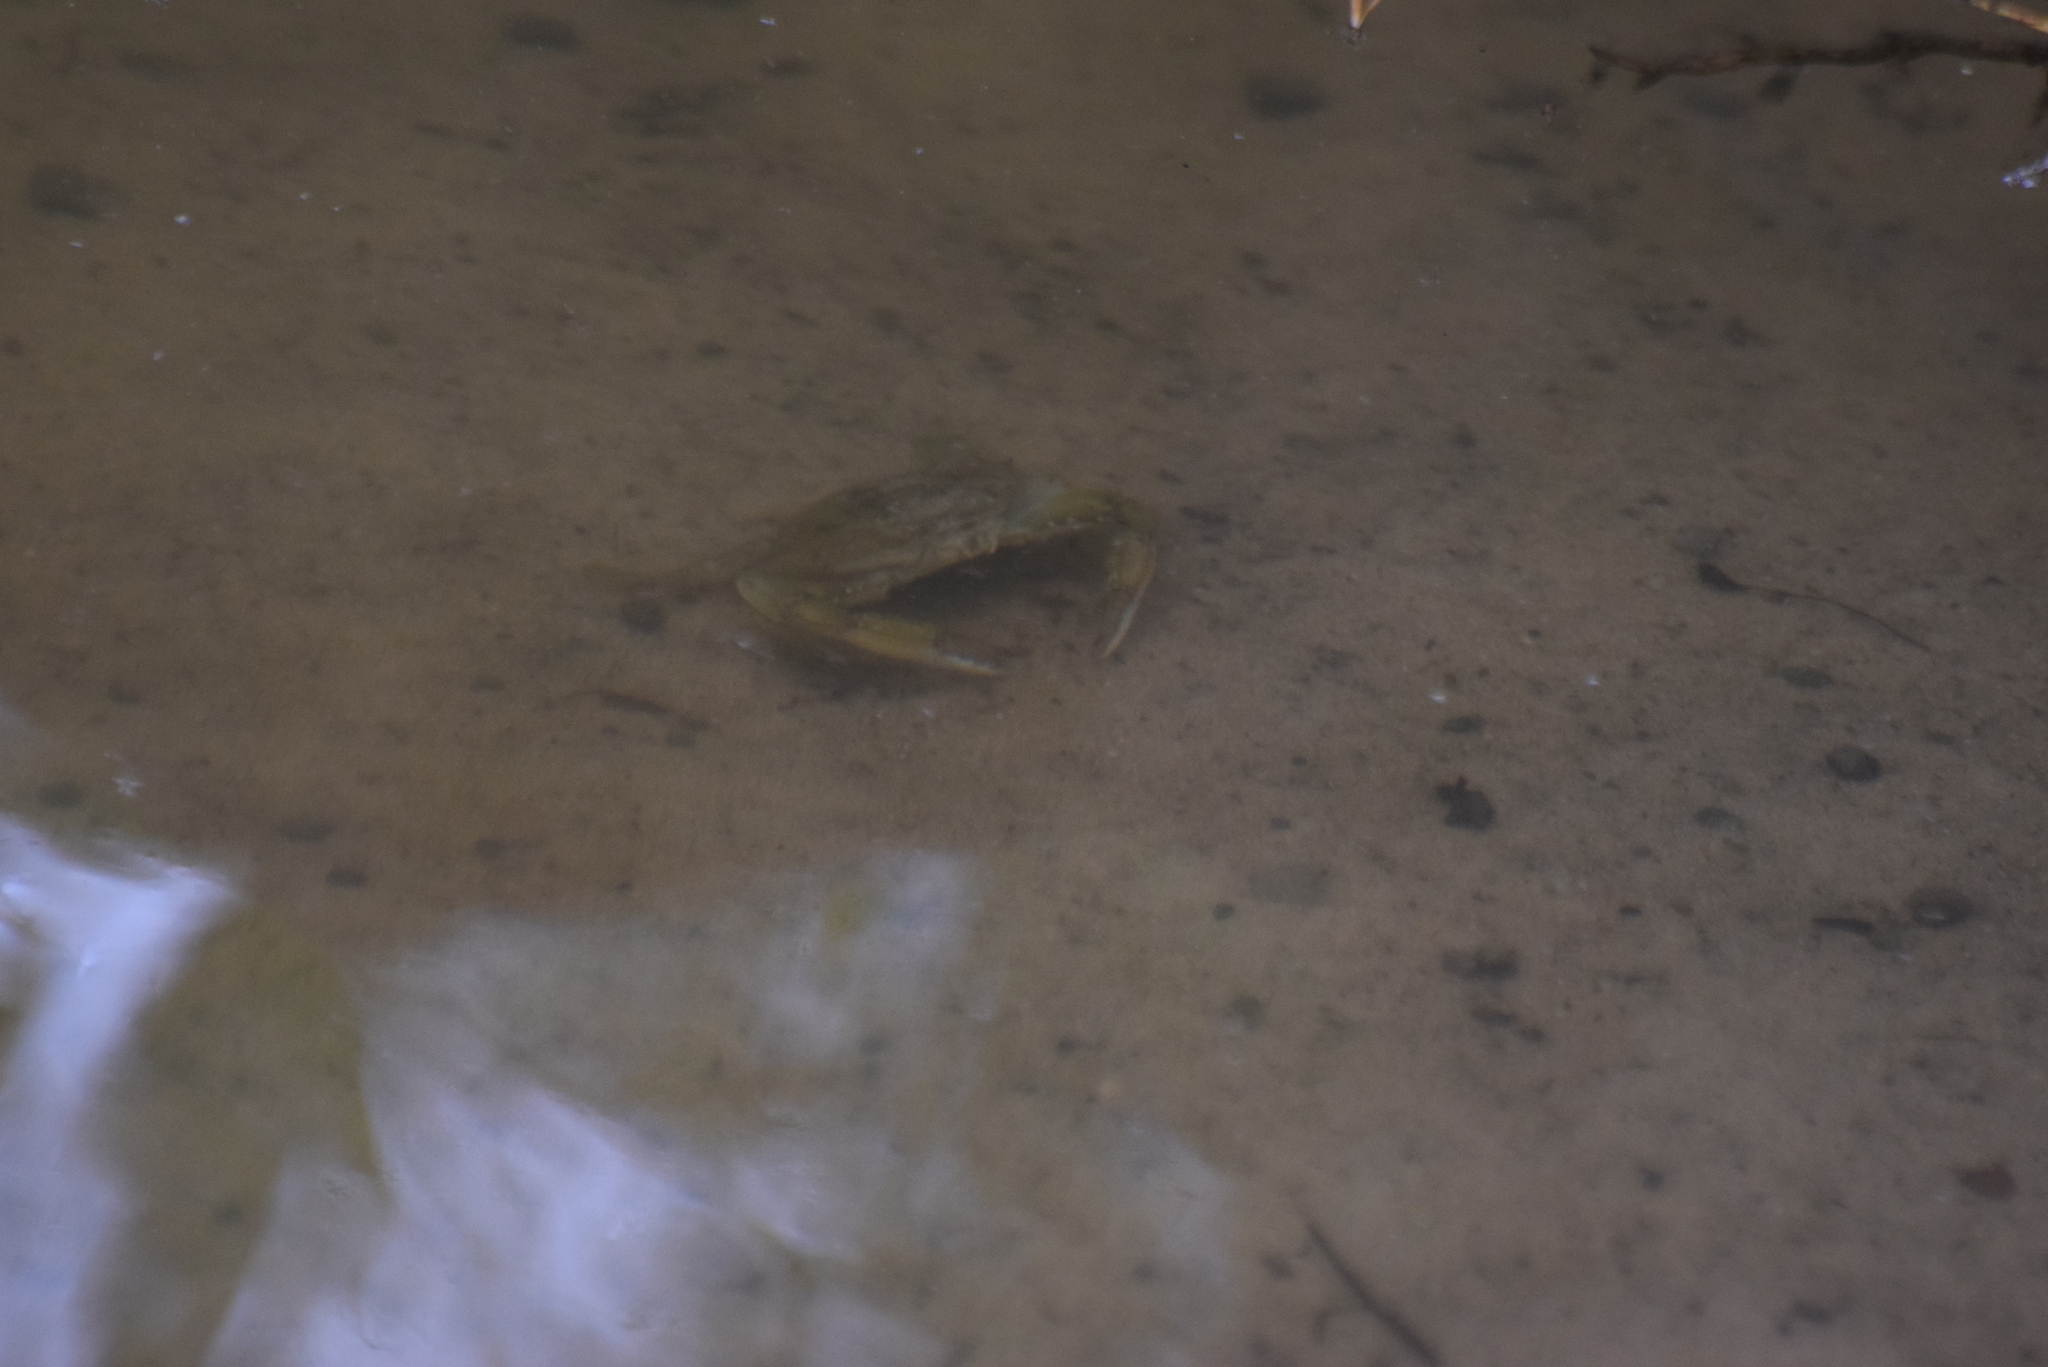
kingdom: Animalia
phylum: Arthropoda
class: Malacostraca
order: Decapoda
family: Portunidae
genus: Callinectes
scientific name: Callinectes sapidus
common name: Blue crab
